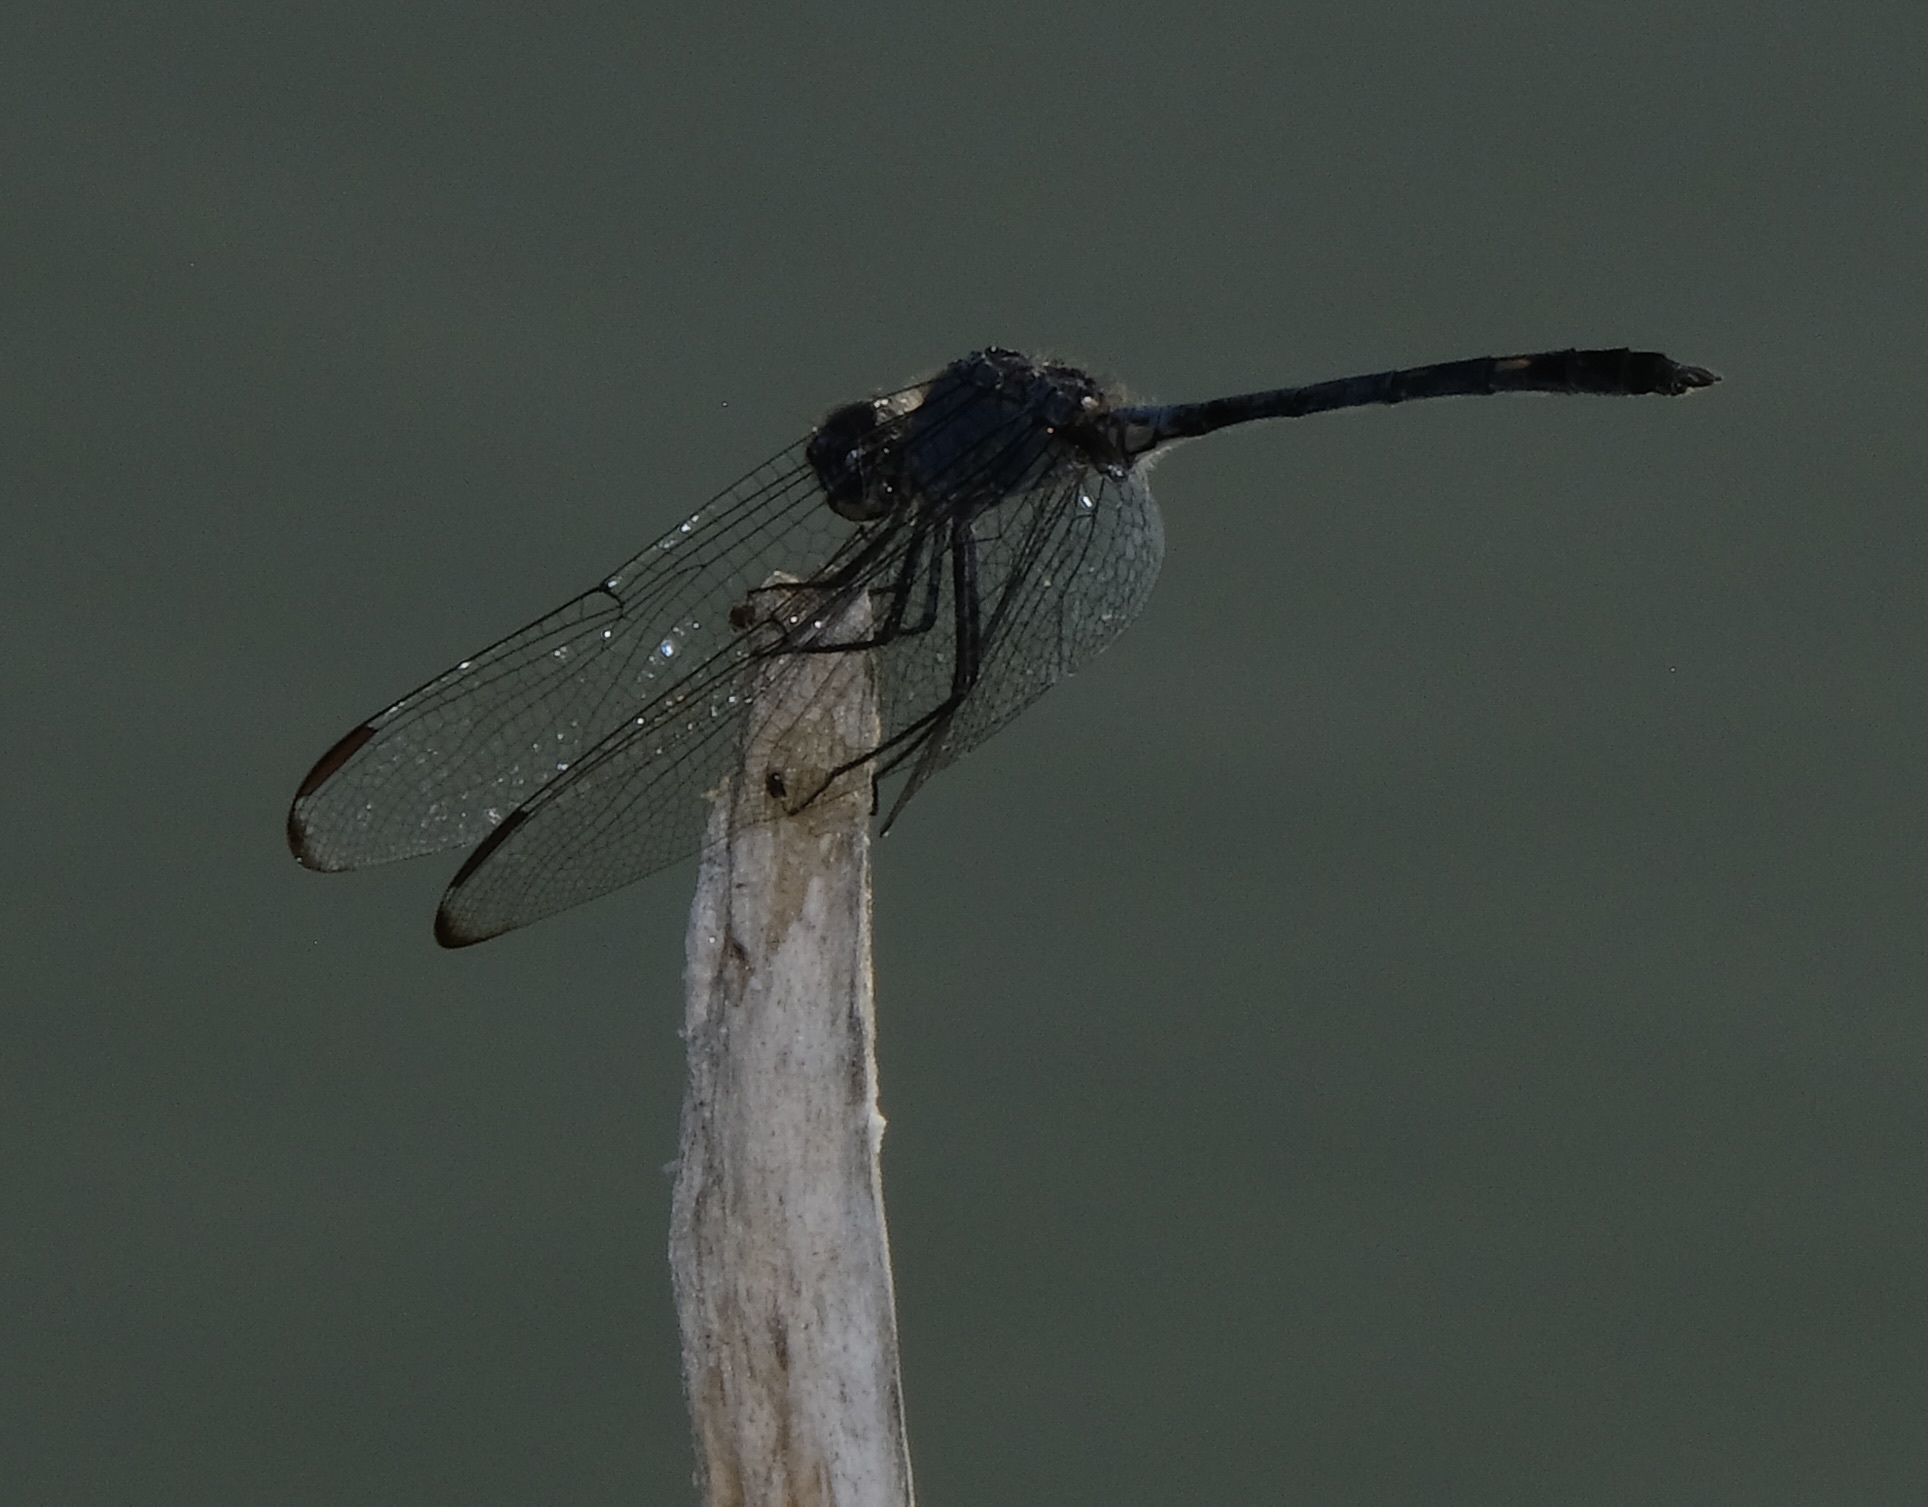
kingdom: Animalia
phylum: Arthropoda
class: Insecta
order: Odonata
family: Libellulidae
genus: Dythemis
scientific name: Dythemis nigrescens
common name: Black setwing
